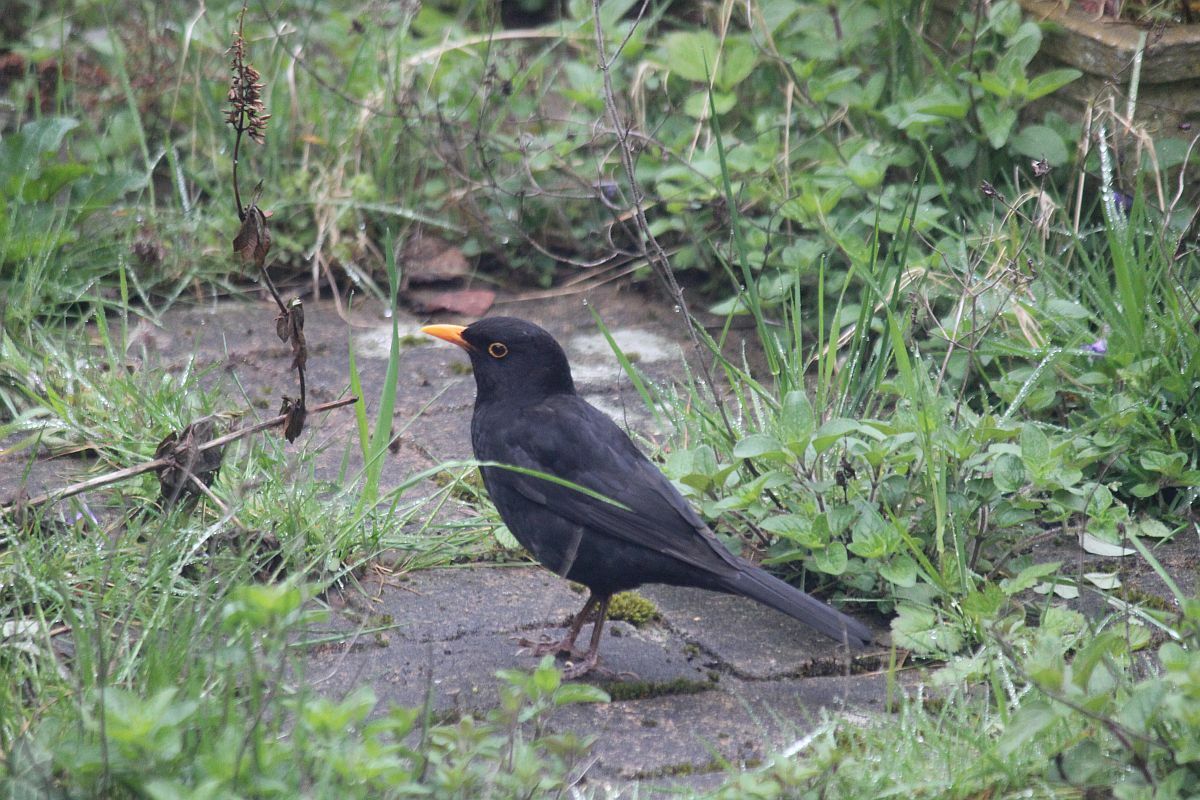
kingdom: Animalia
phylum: Chordata
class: Aves
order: Passeriformes
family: Turdidae
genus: Turdus
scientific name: Turdus merula
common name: Common blackbird
